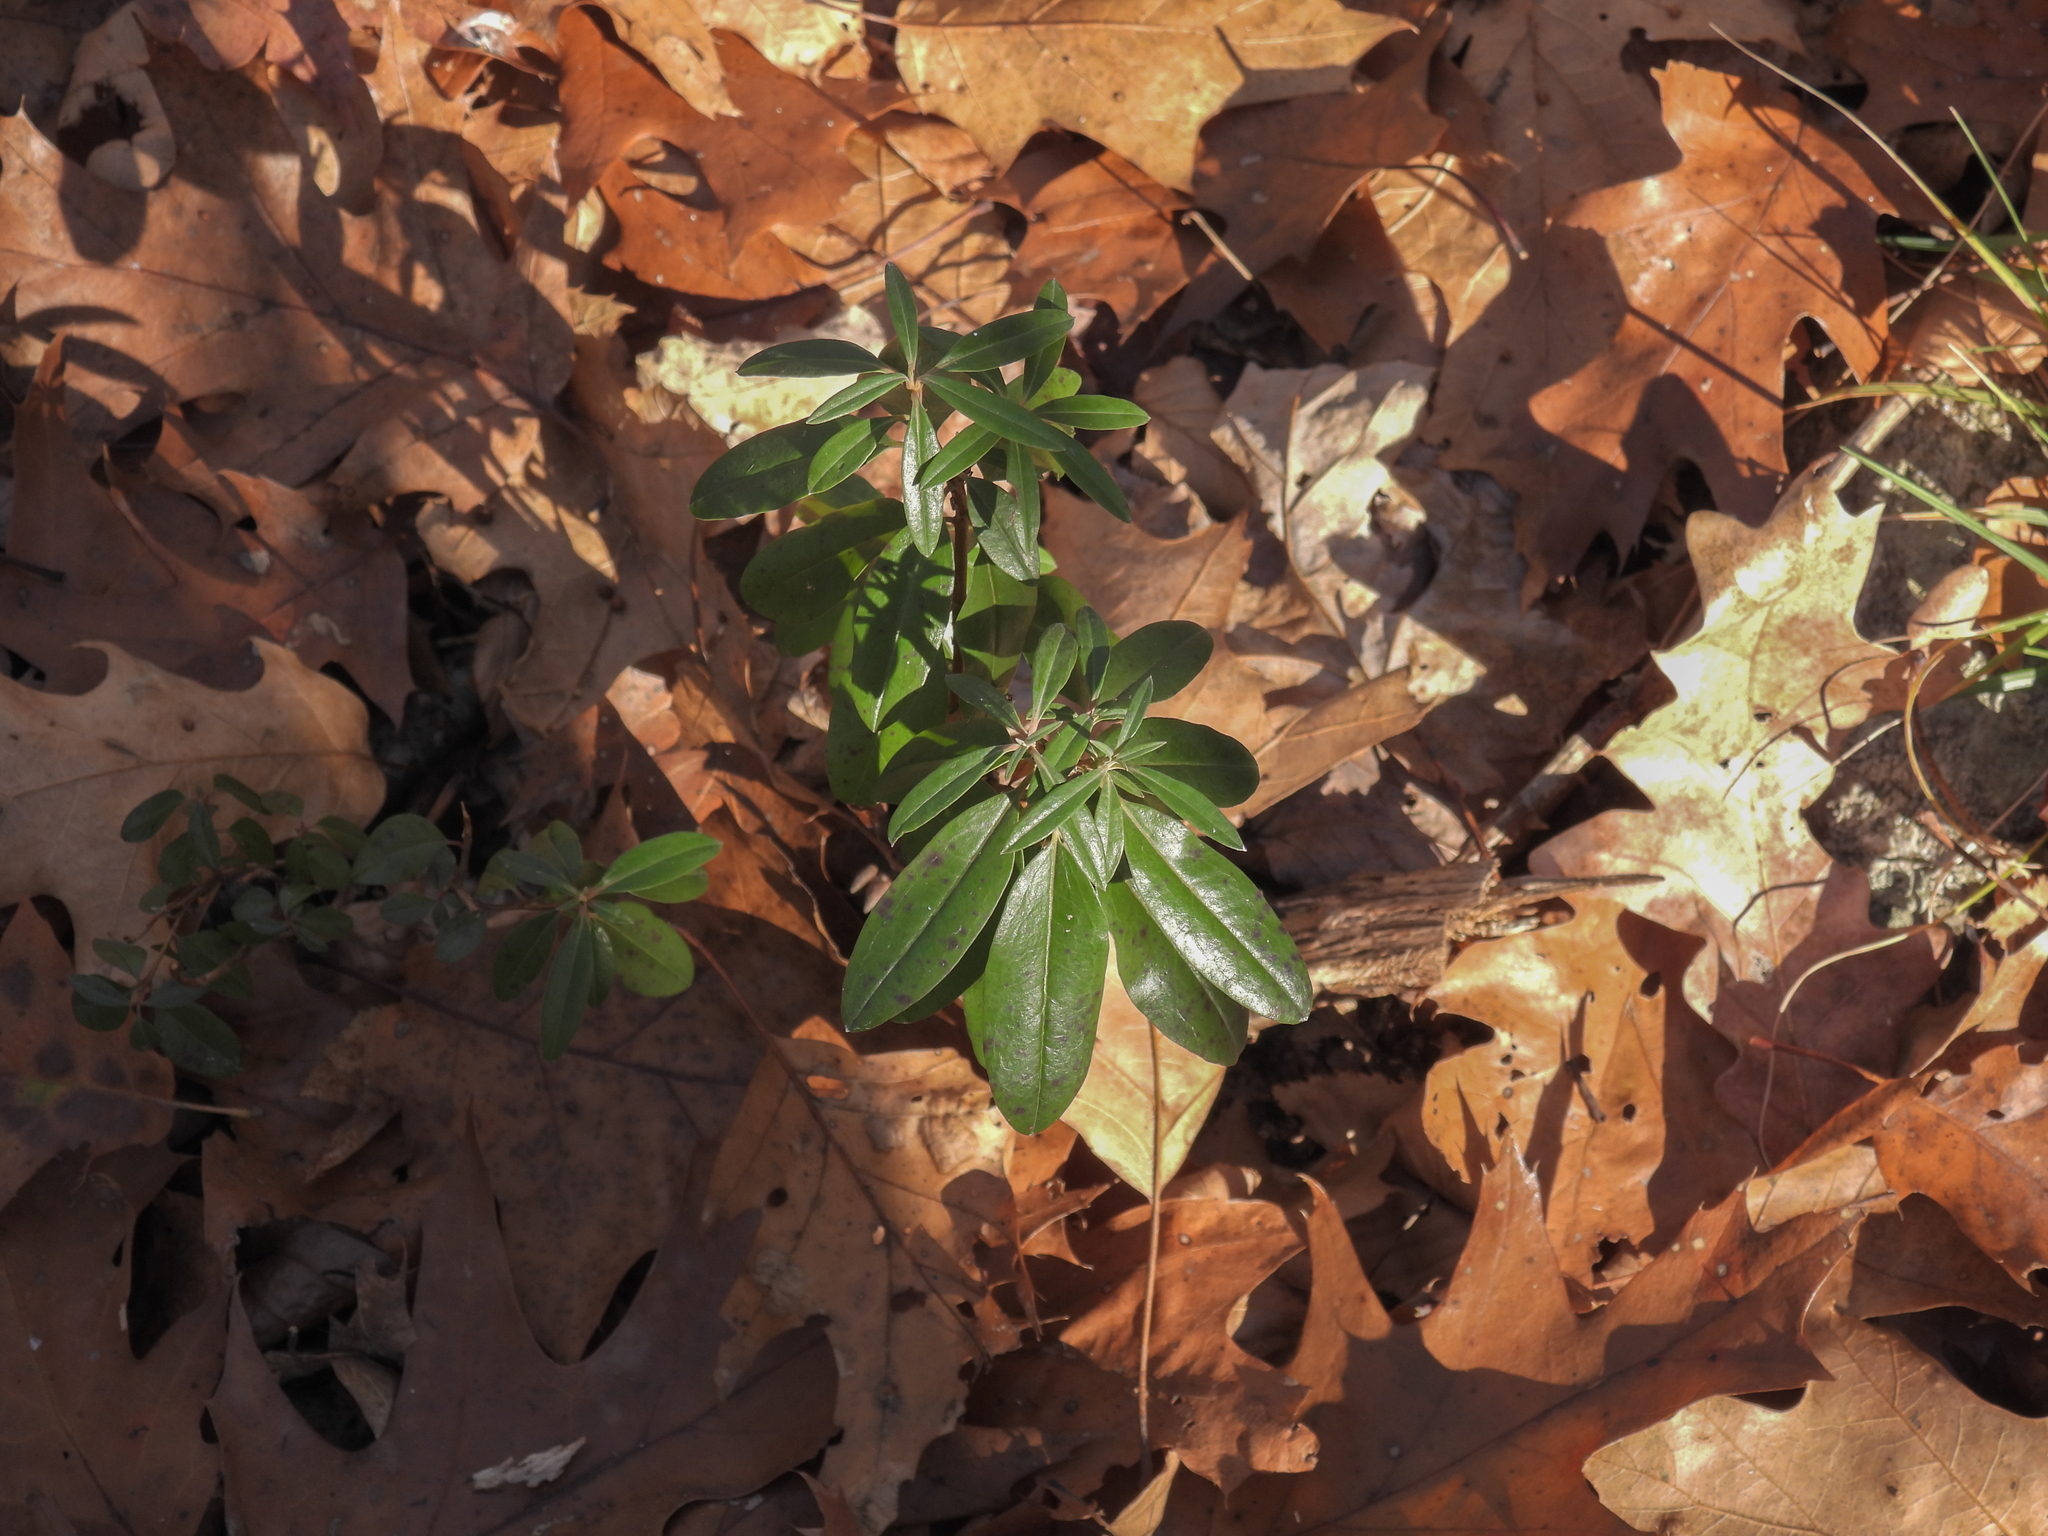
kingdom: Plantae
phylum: Tracheophyta
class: Magnoliopsida
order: Ericales
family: Ericaceae
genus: Kalmia
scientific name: Kalmia angustifolia
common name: Sheep-laurel
